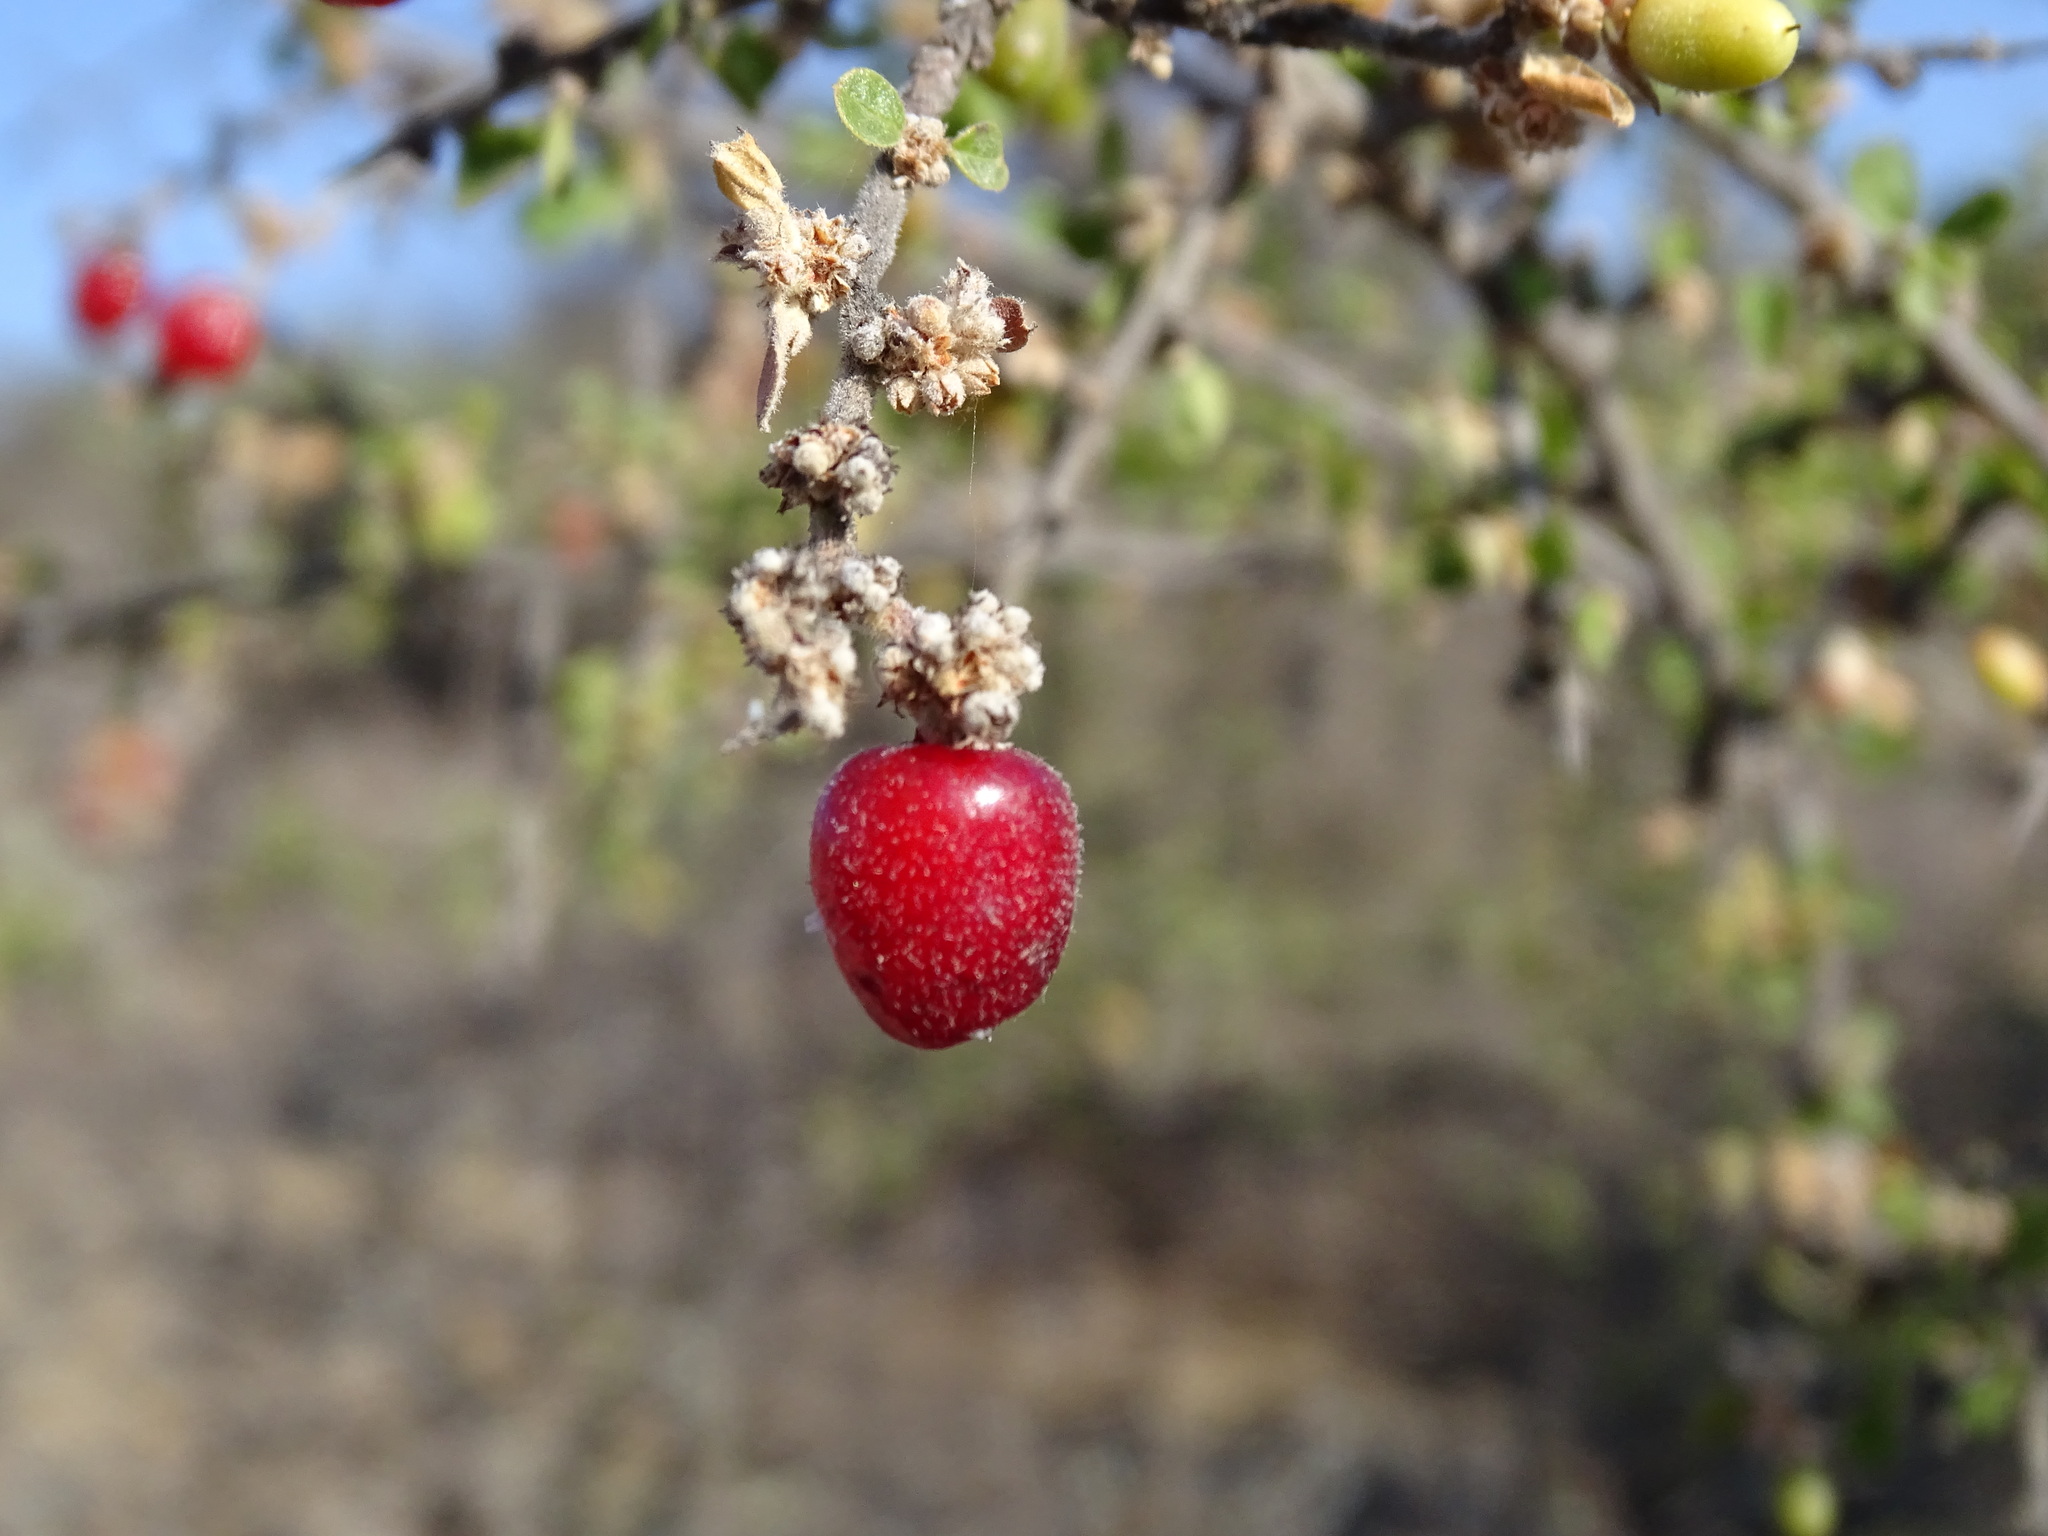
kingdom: Plantae
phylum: Tracheophyta
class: Magnoliopsida
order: Rosales
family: Rhamnaceae
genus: Condalia
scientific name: Condalia velutina
